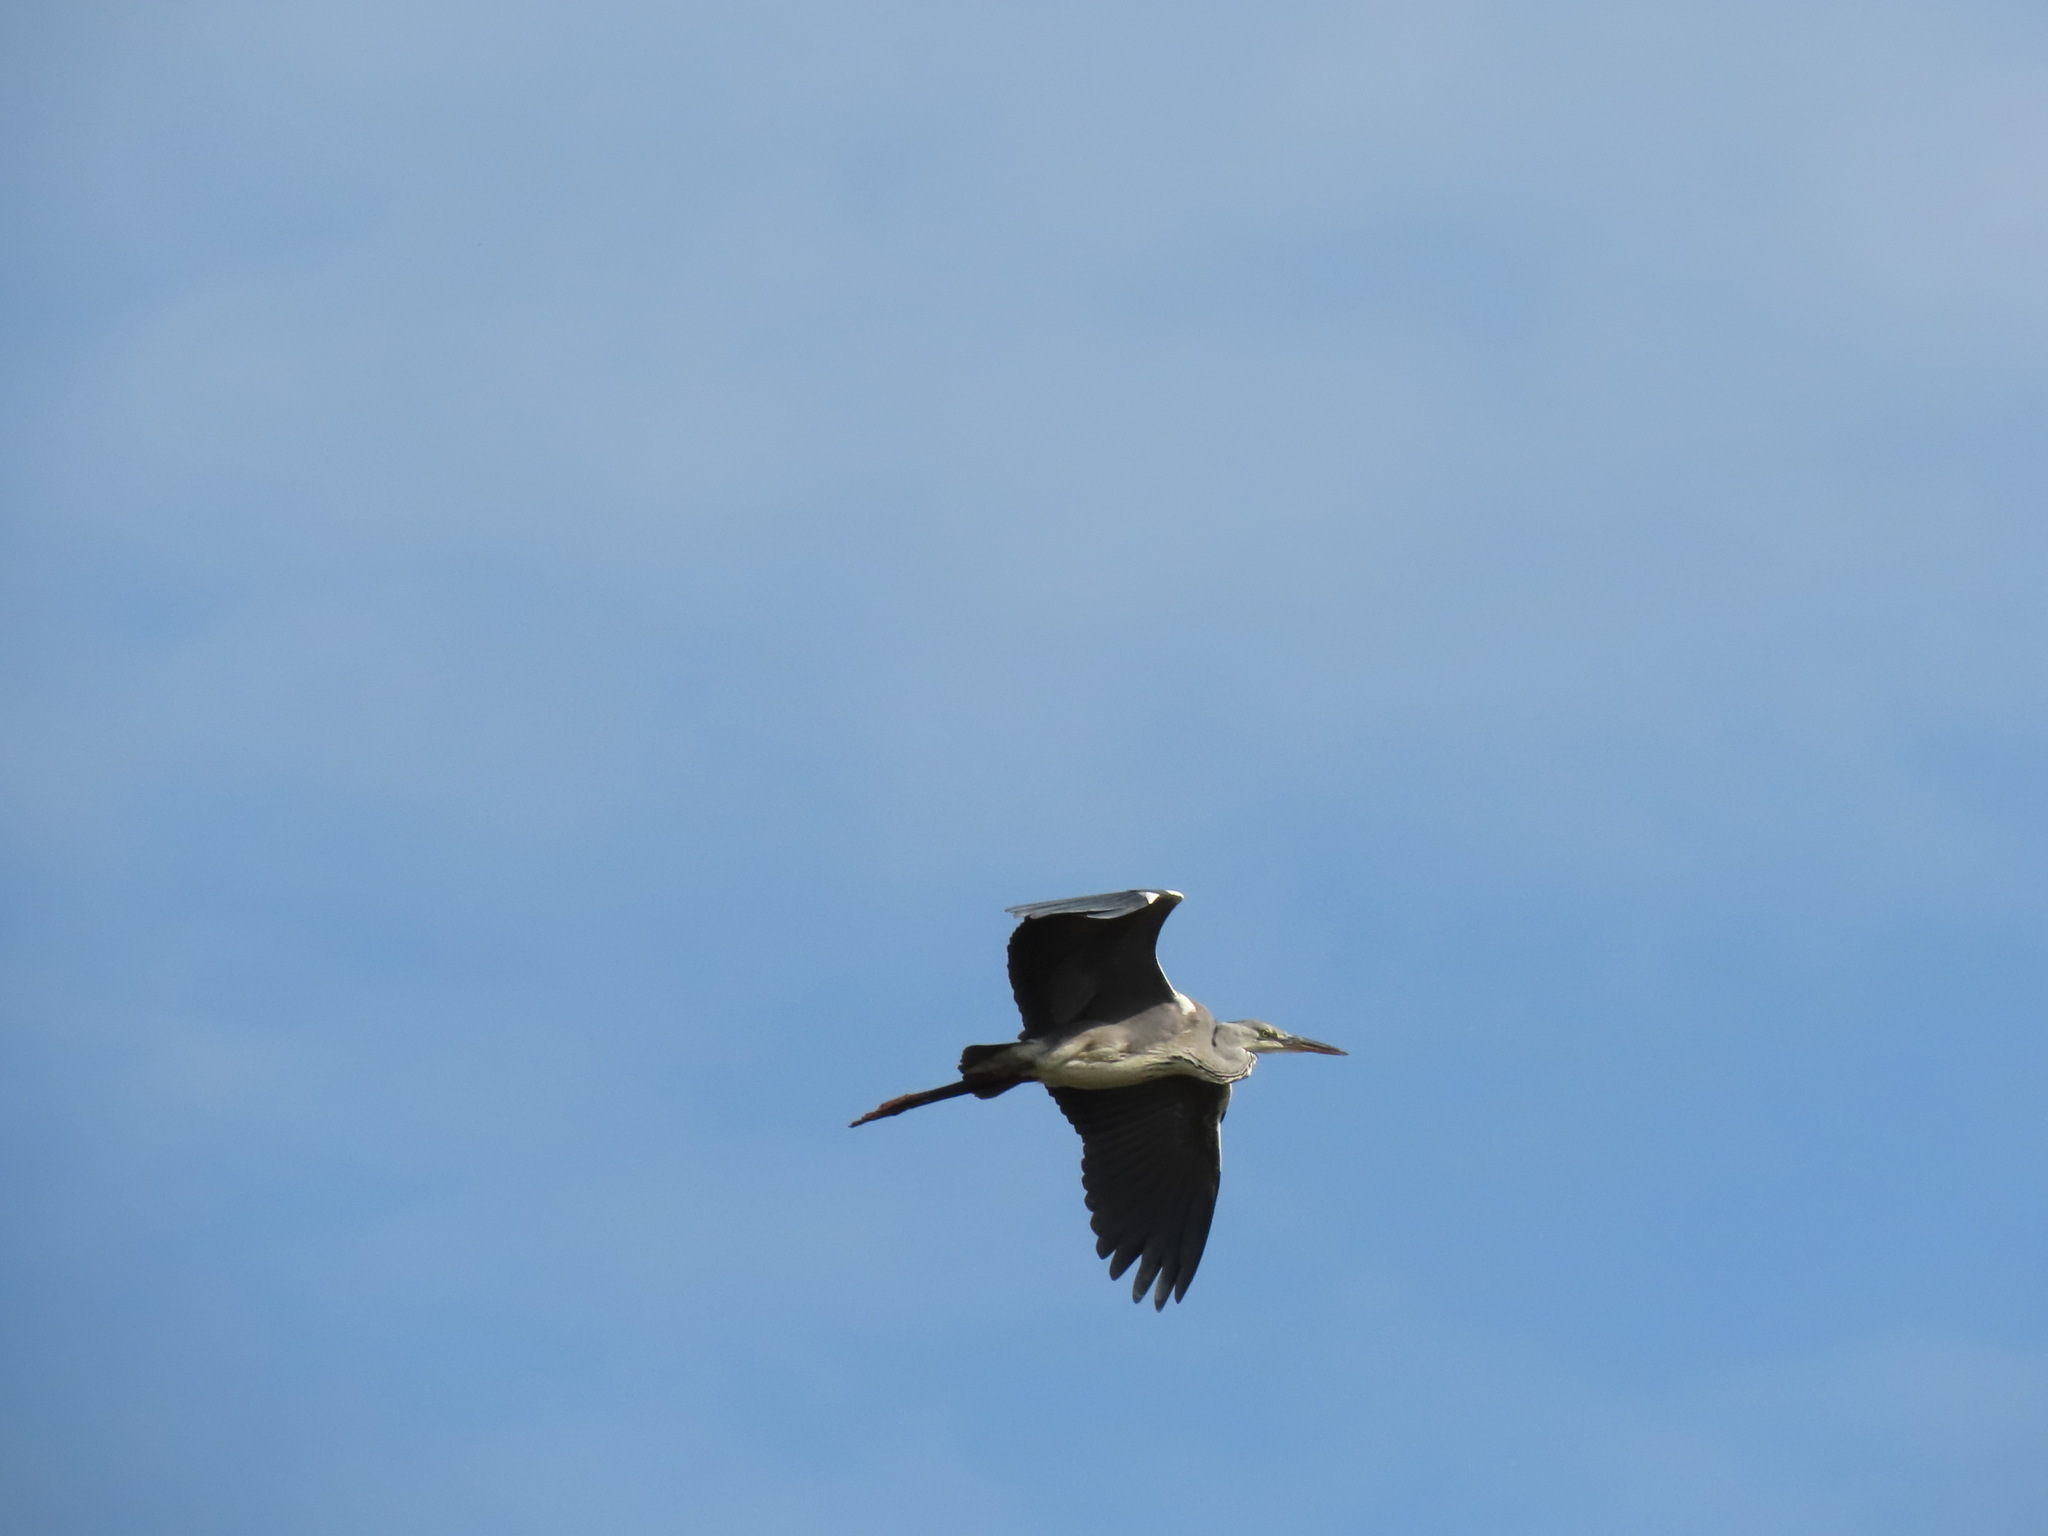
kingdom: Animalia
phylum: Chordata
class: Aves
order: Pelecaniformes
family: Ardeidae
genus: Ardea
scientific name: Ardea cinerea
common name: Grey heron
